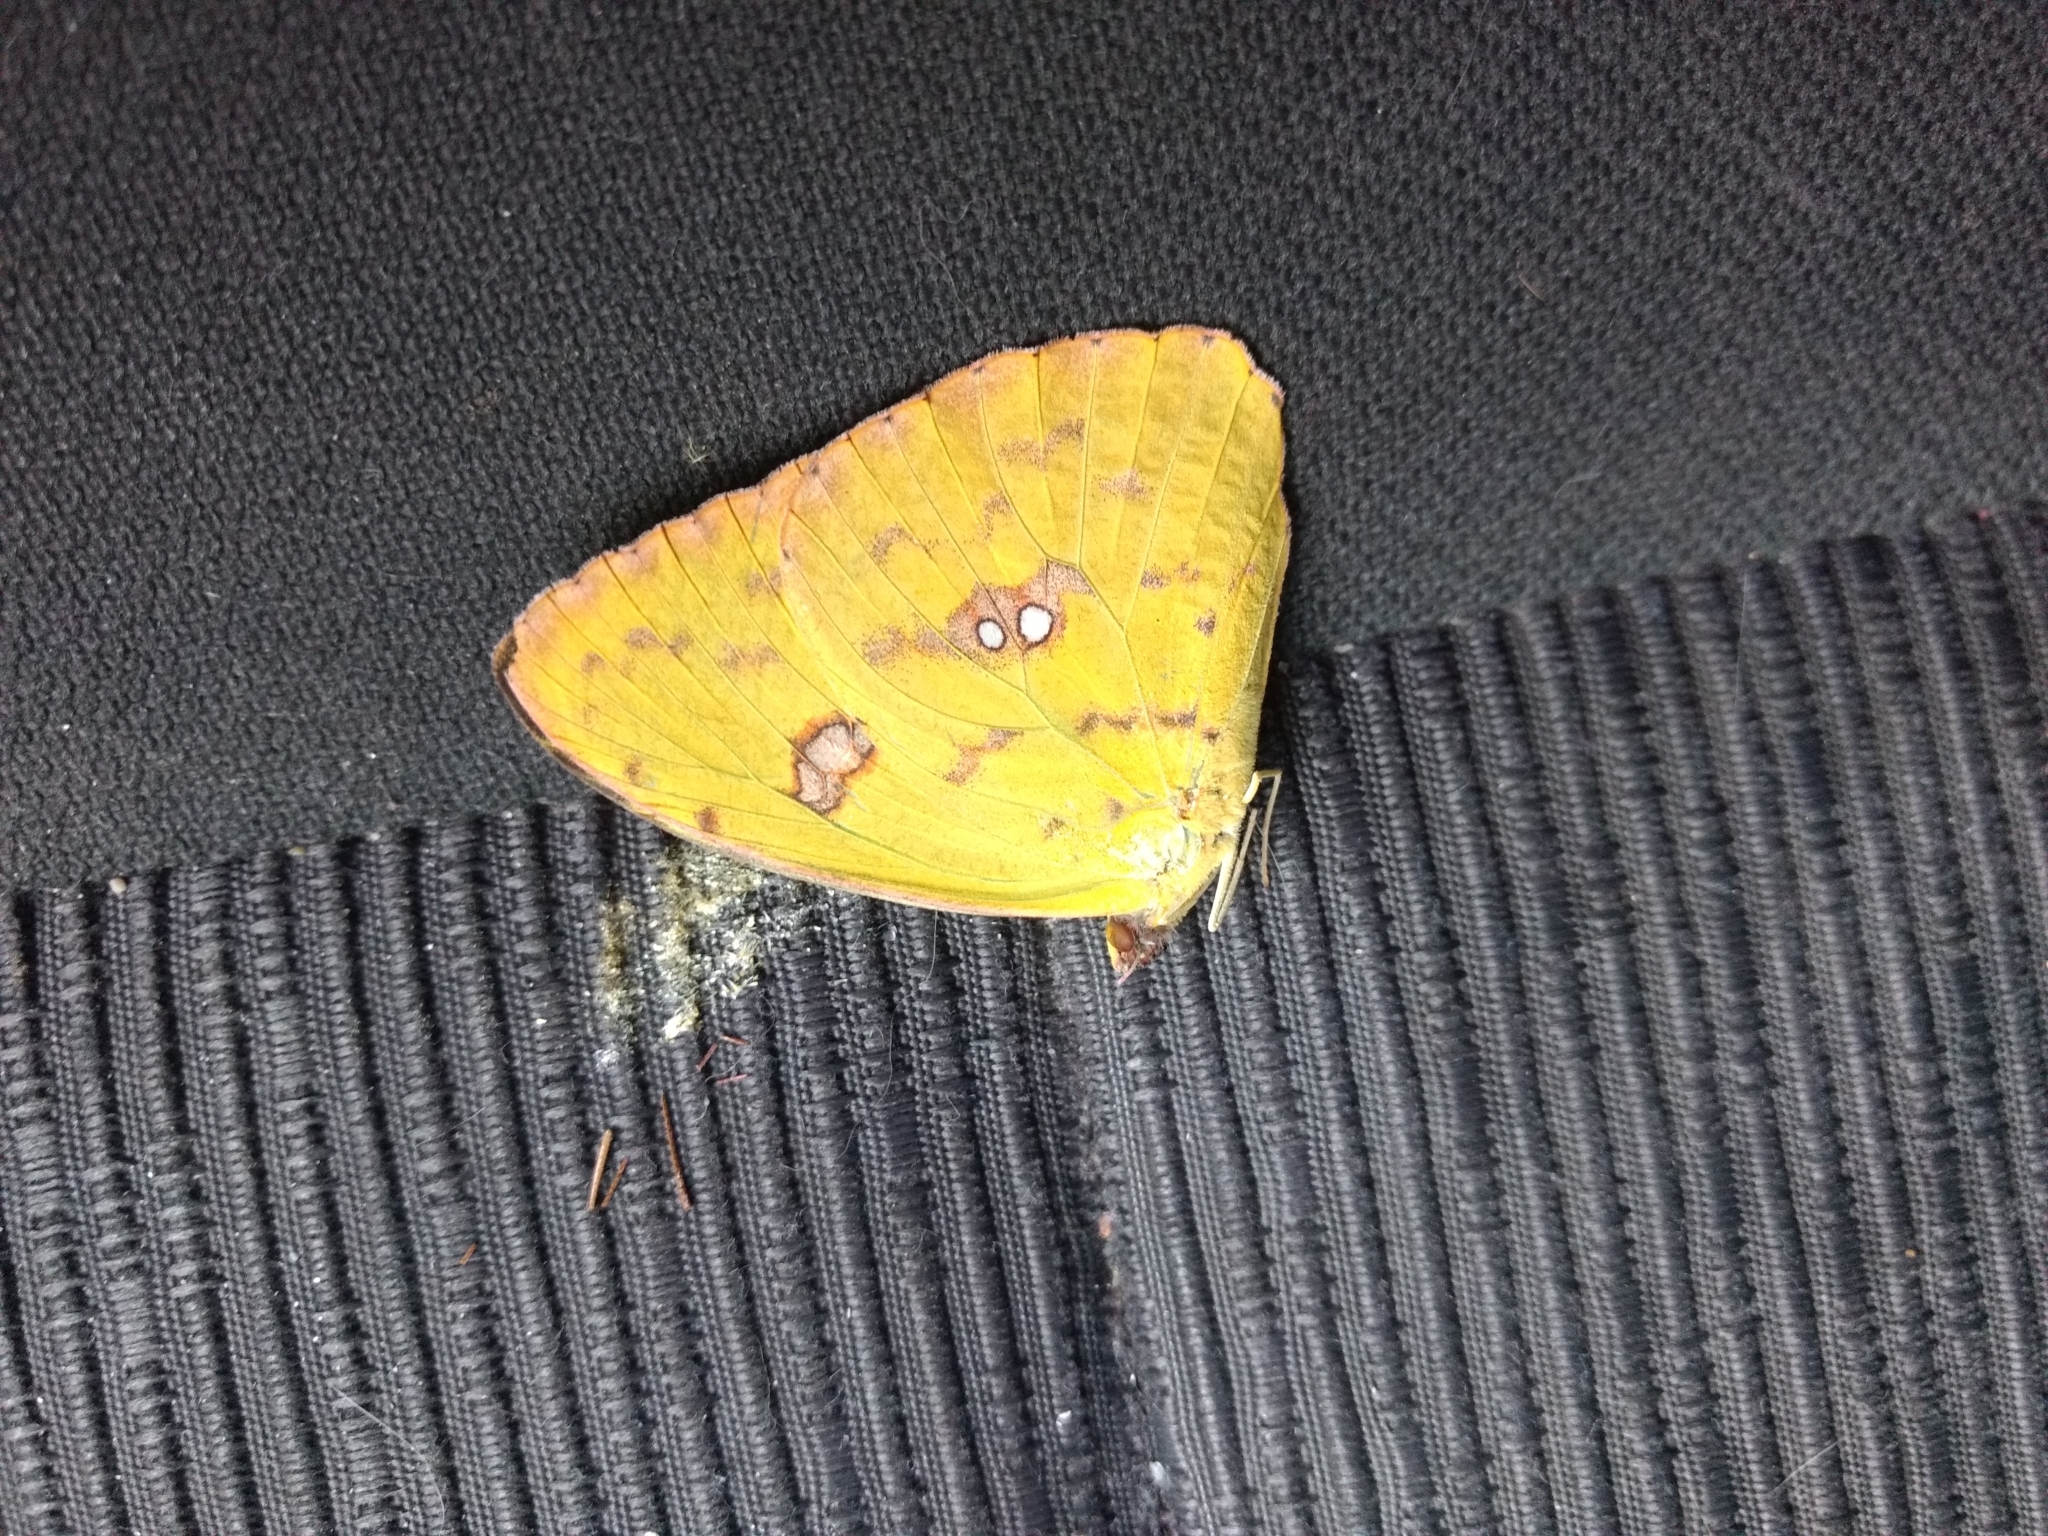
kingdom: Animalia
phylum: Arthropoda
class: Insecta
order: Lepidoptera
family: Pieridae
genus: Phoebis
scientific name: Phoebis philea
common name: Orange-barred giant sulphur
